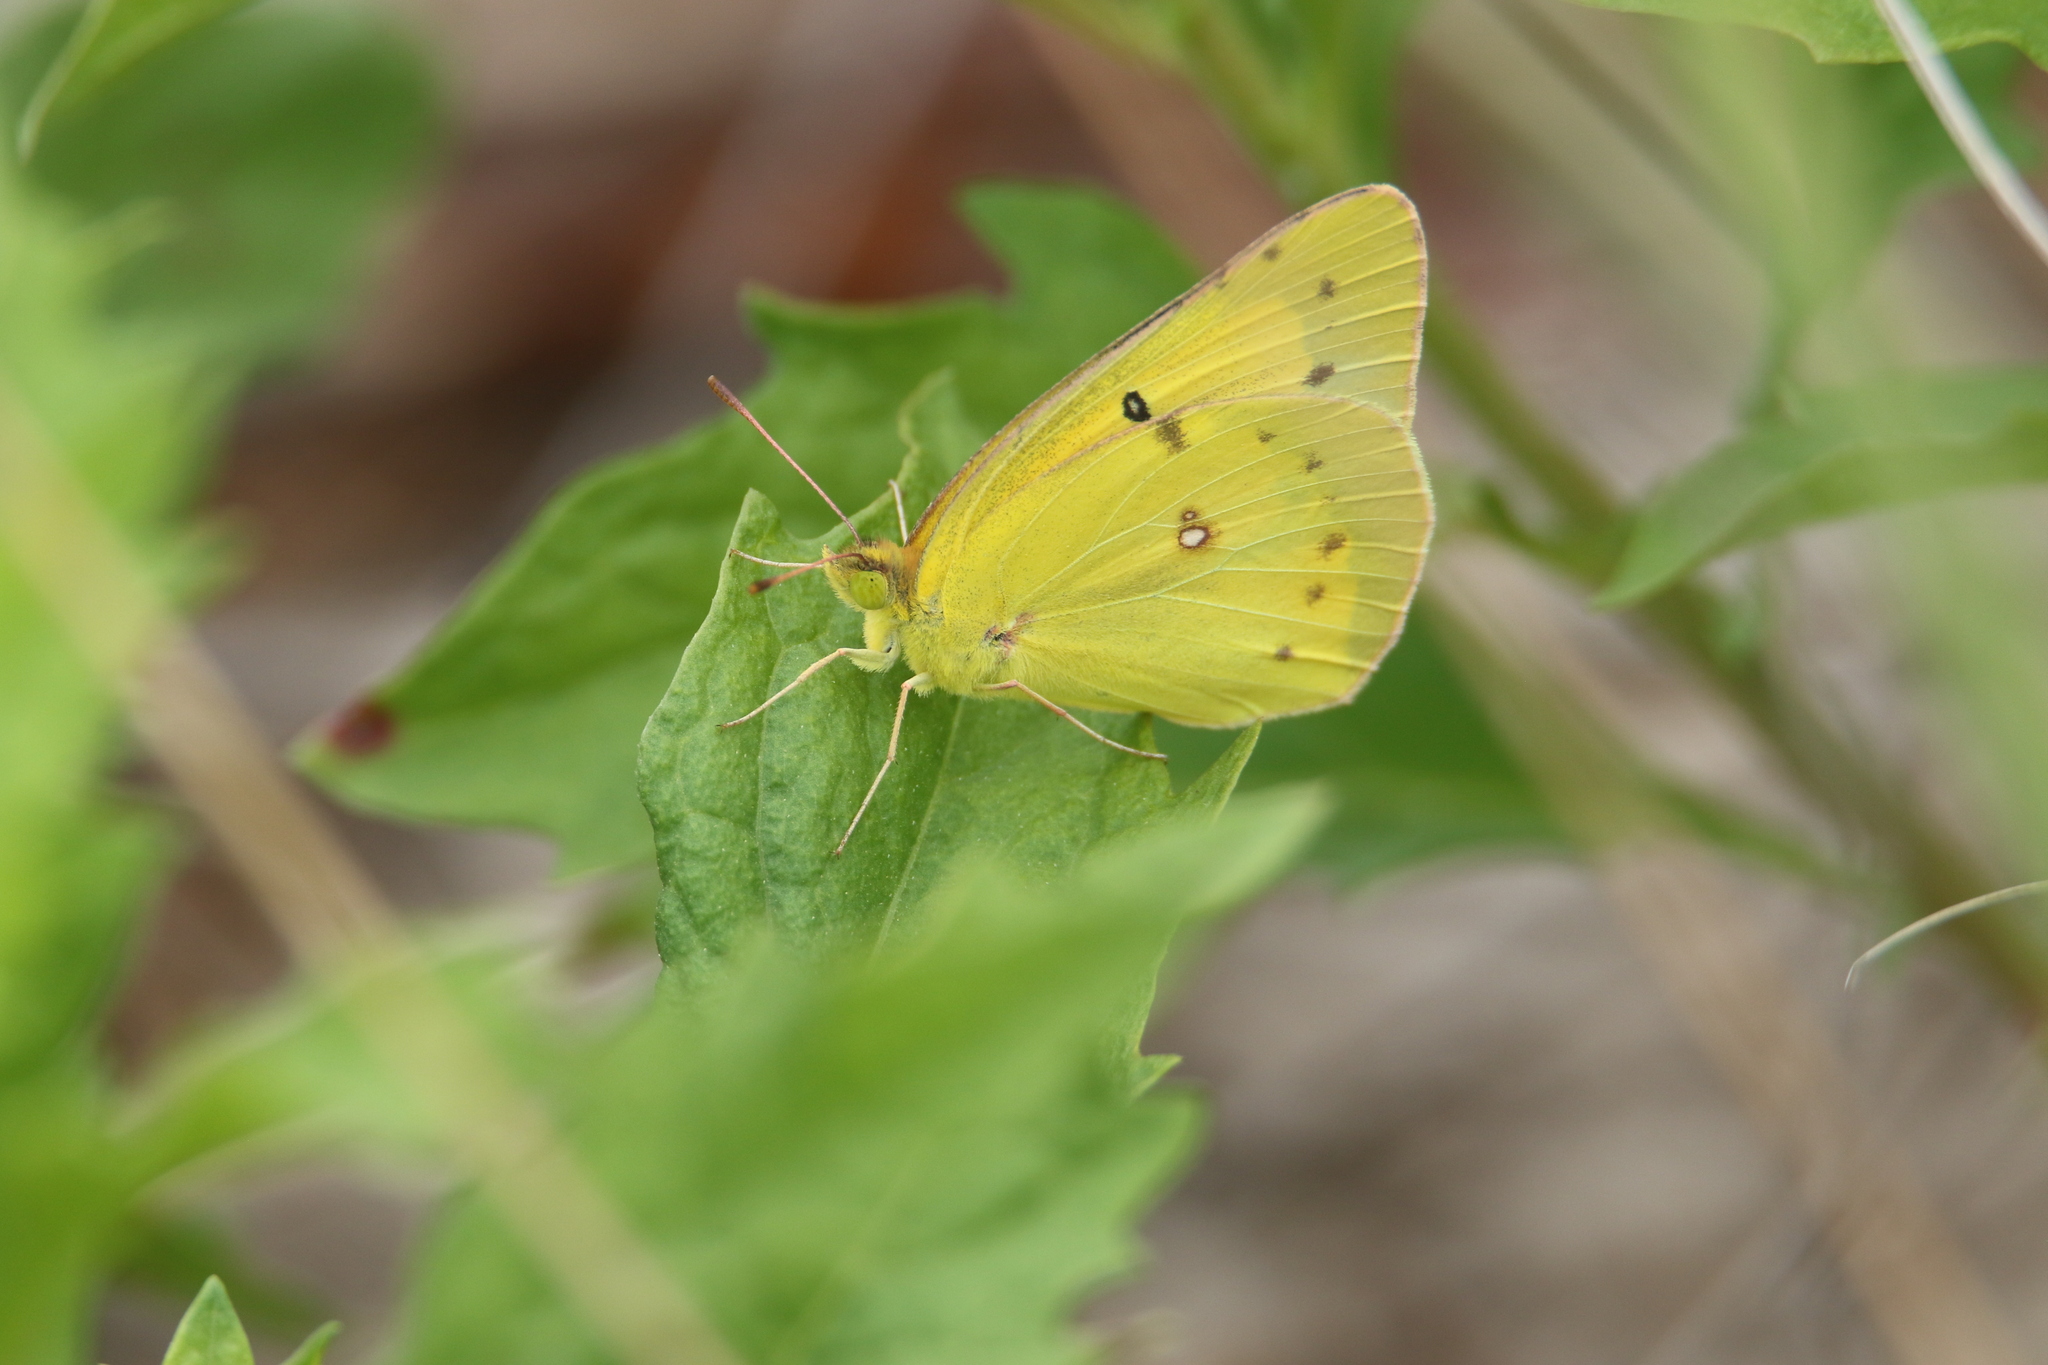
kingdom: Animalia
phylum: Arthropoda
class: Insecta
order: Lepidoptera
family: Pieridae
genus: Colias
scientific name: Colias eurytheme
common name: Alfalfa butterfly
